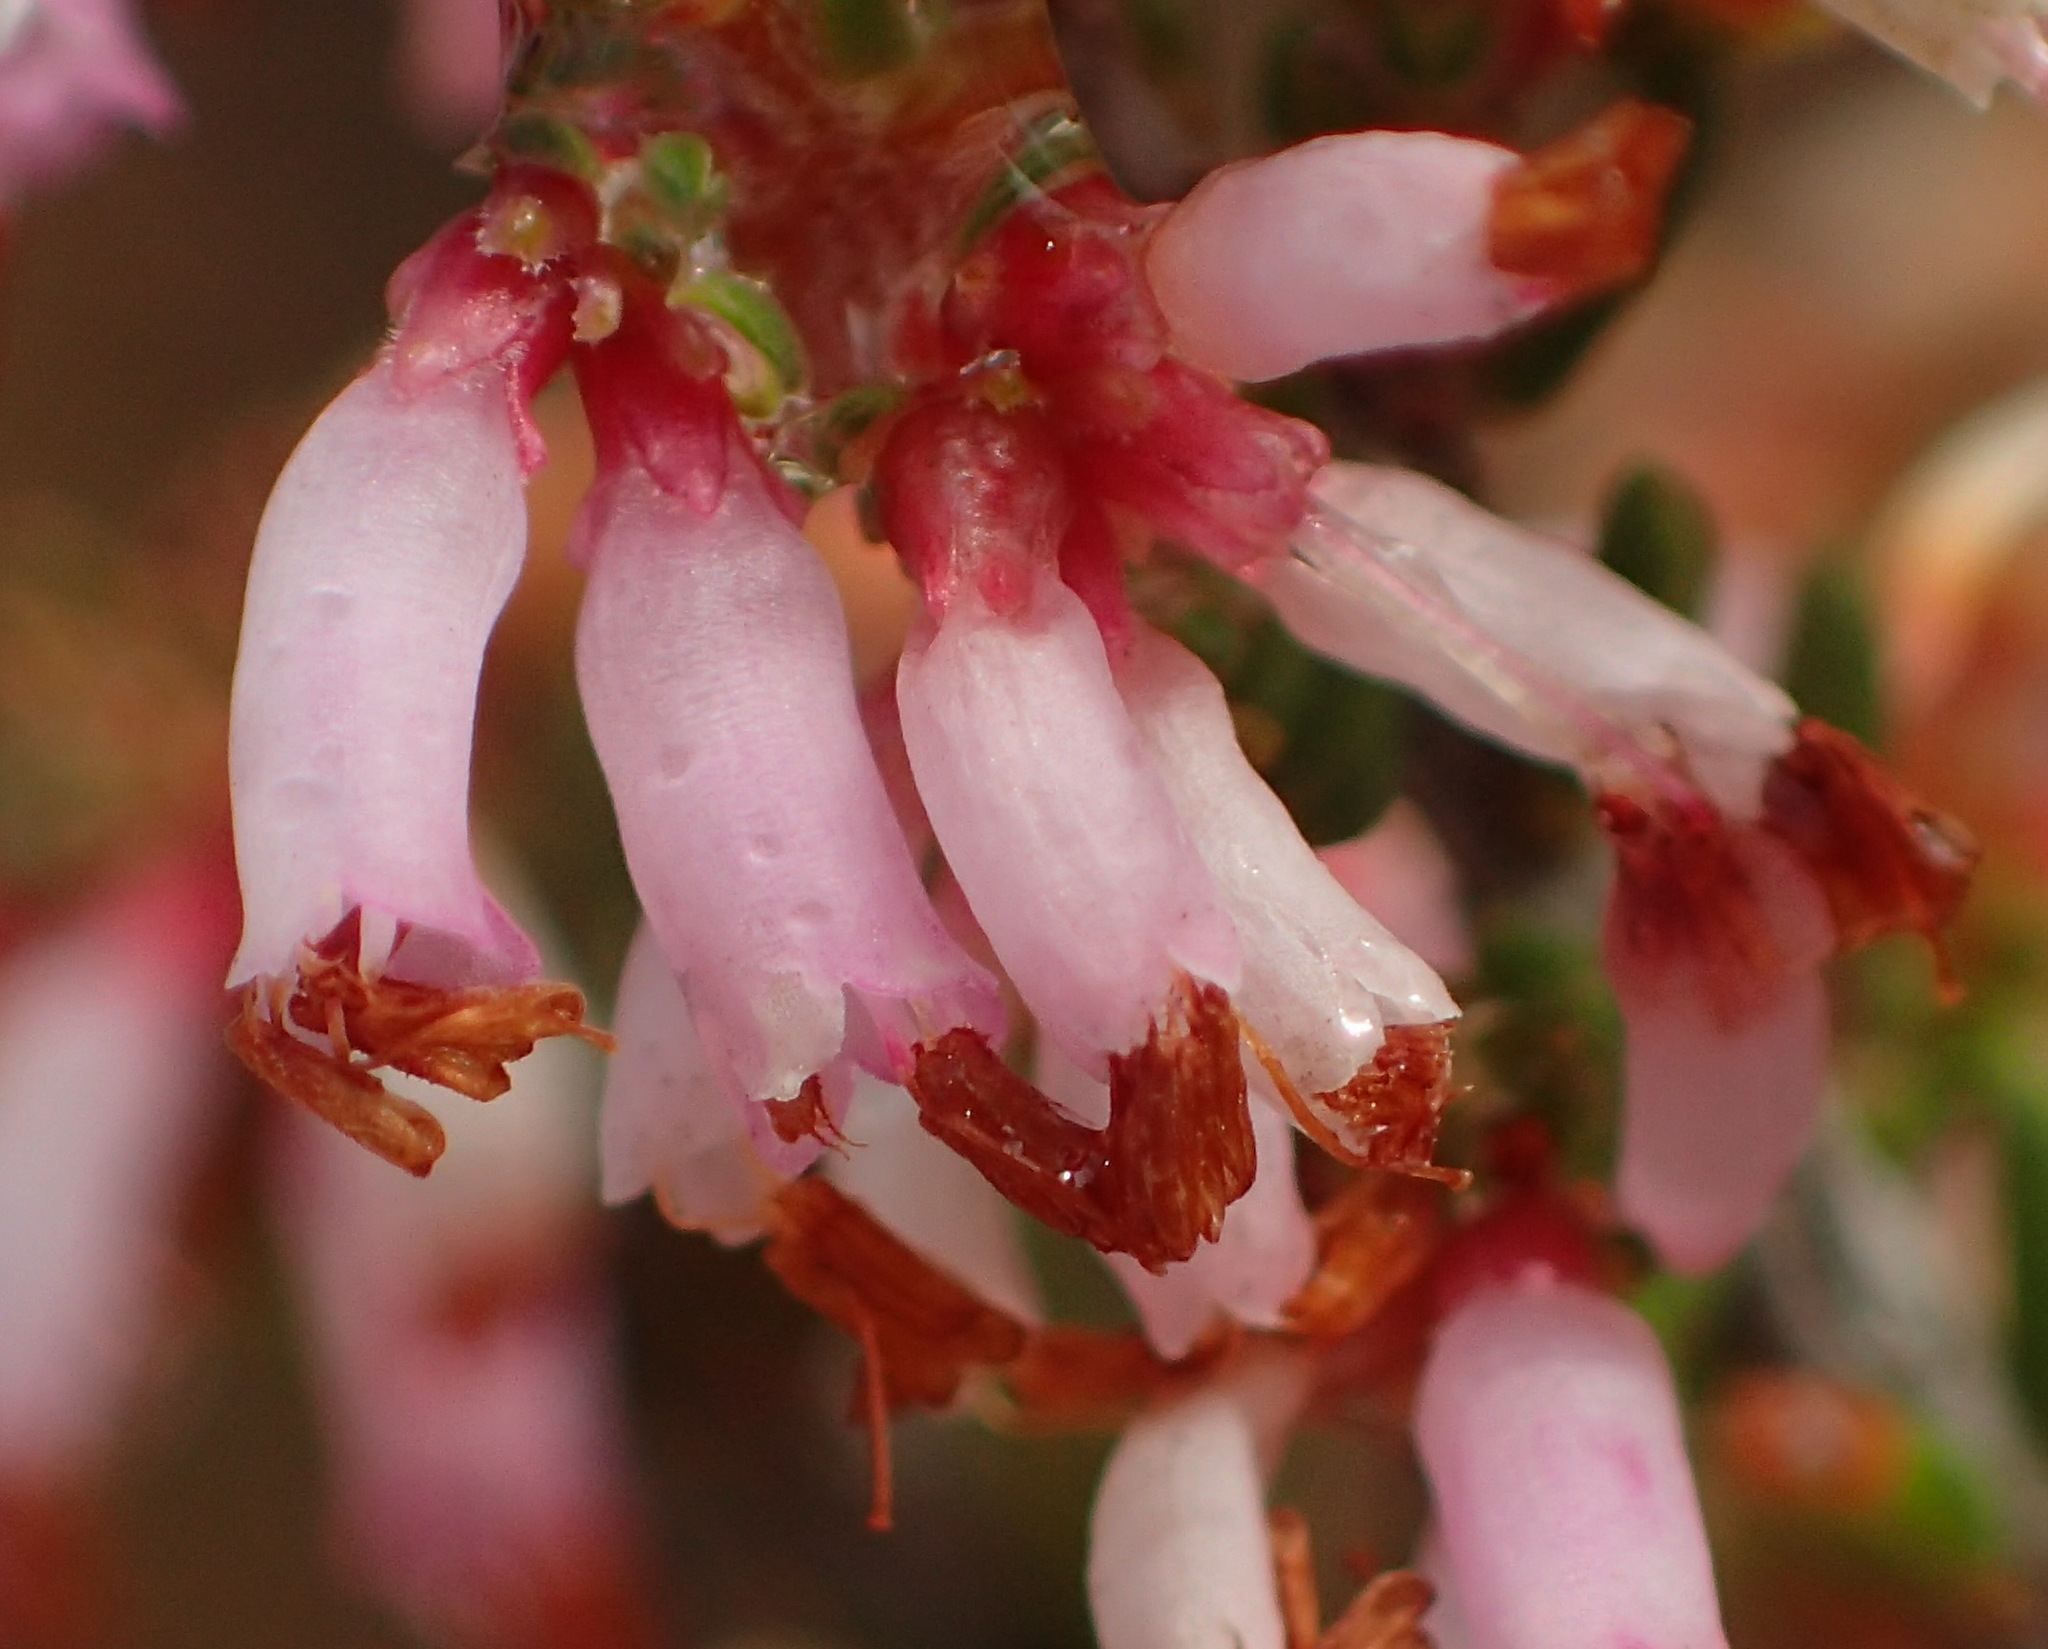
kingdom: Plantae
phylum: Tracheophyta
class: Magnoliopsida
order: Ericales
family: Ericaceae
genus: Erica
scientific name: Erica glabra
